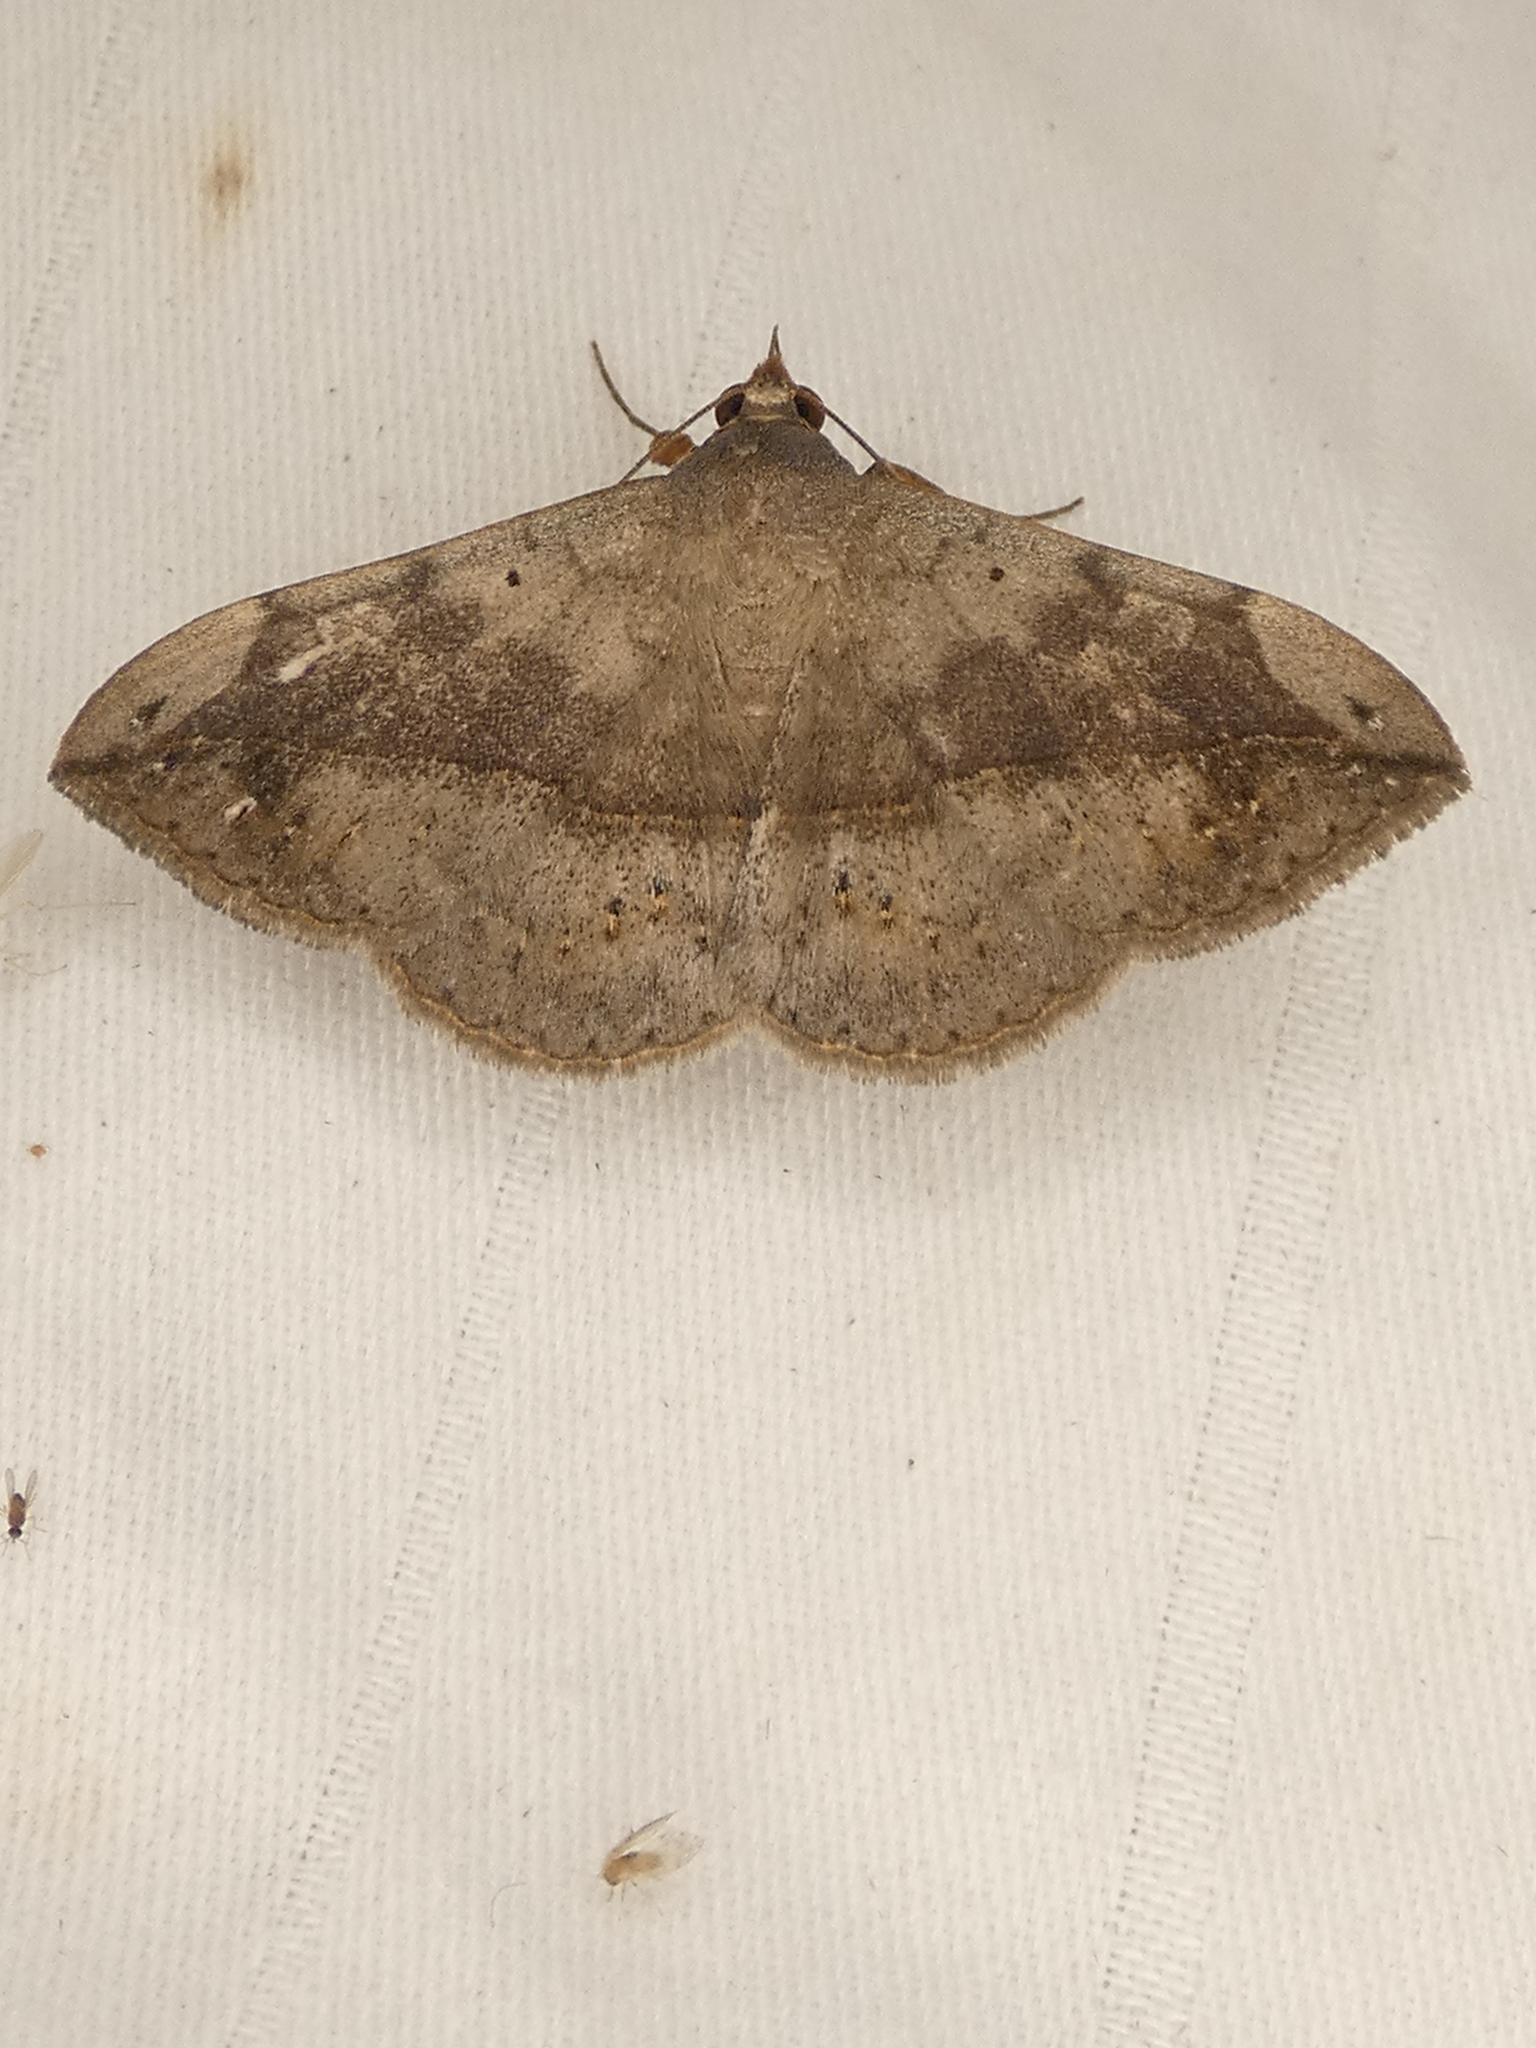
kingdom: Animalia
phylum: Arthropoda
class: Insecta
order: Lepidoptera
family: Erebidae
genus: Anticarsia
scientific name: Anticarsia gemmatalis
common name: Cutworm moth
